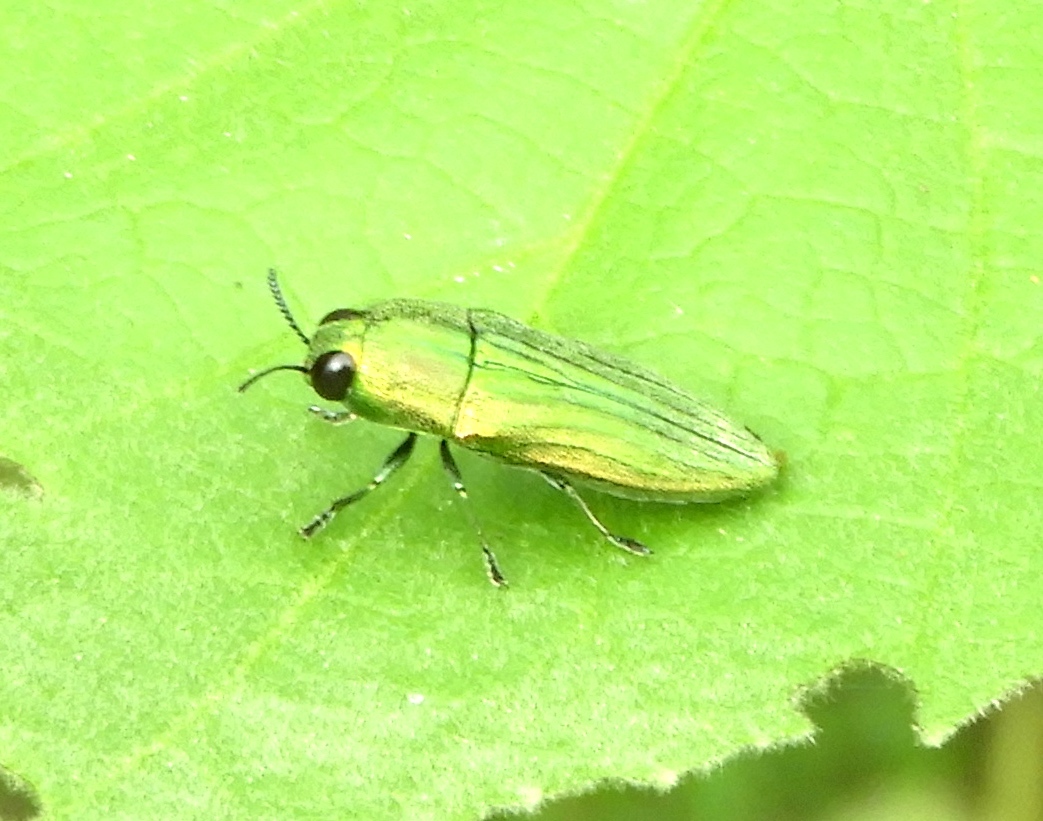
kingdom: Animalia
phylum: Arthropoda
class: Insecta
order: Coleoptera
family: Buprestidae
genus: Agaeocera
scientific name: Agaeocera scintillans
